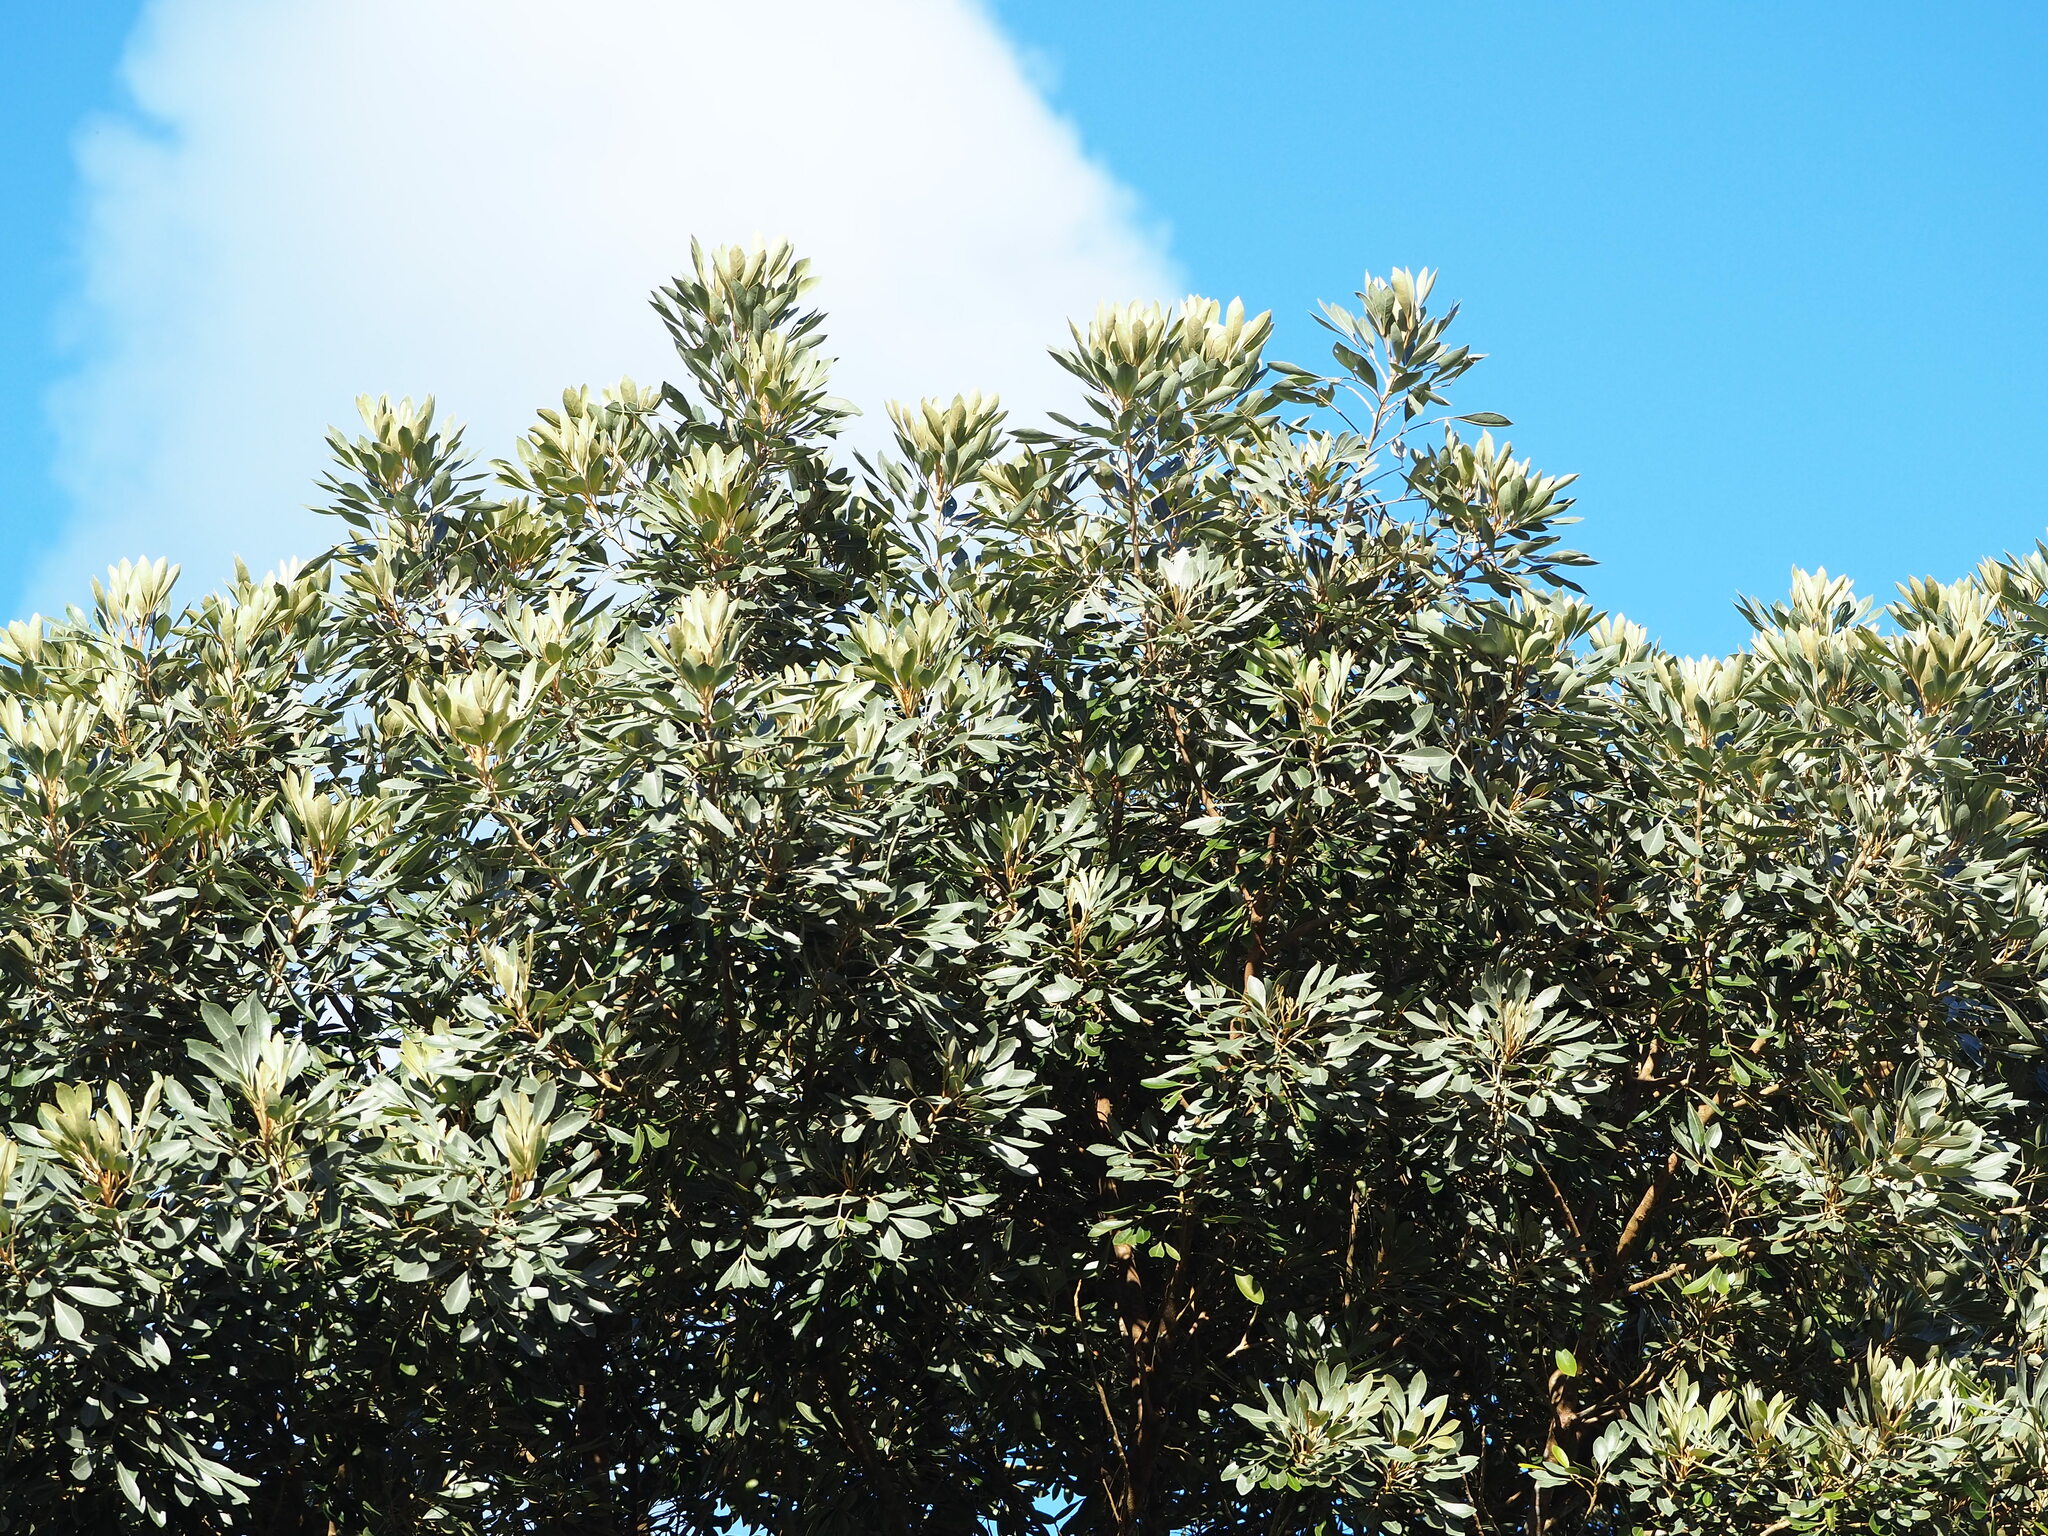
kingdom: Plantae
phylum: Tracheophyta
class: Magnoliopsida
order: Sapindales
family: Meliaceae
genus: Aglaia
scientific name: Aglaia elaeagnoidea
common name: Droopyleaf
